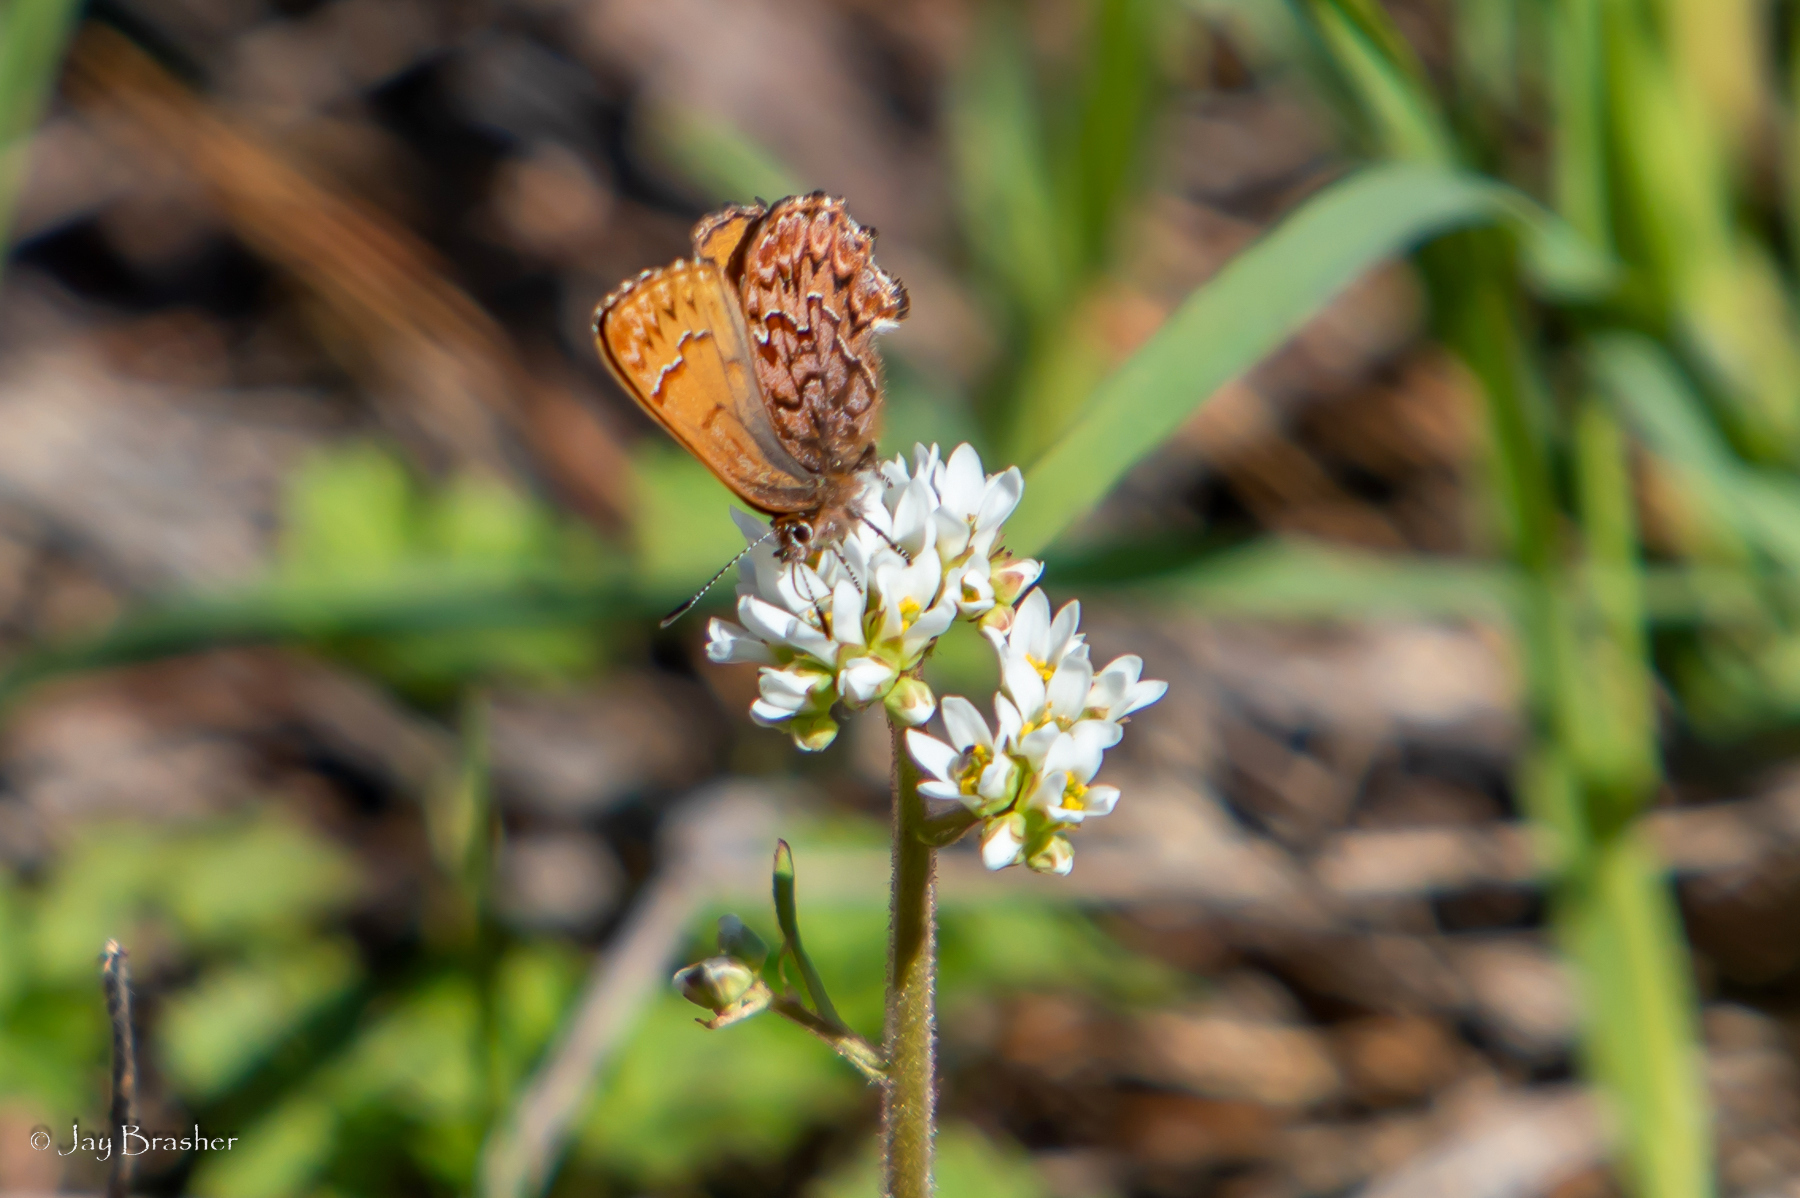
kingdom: Animalia
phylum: Arthropoda
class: Insecta
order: Lepidoptera
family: Lycaenidae
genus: Incisalia
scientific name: Incisalia eryphon
